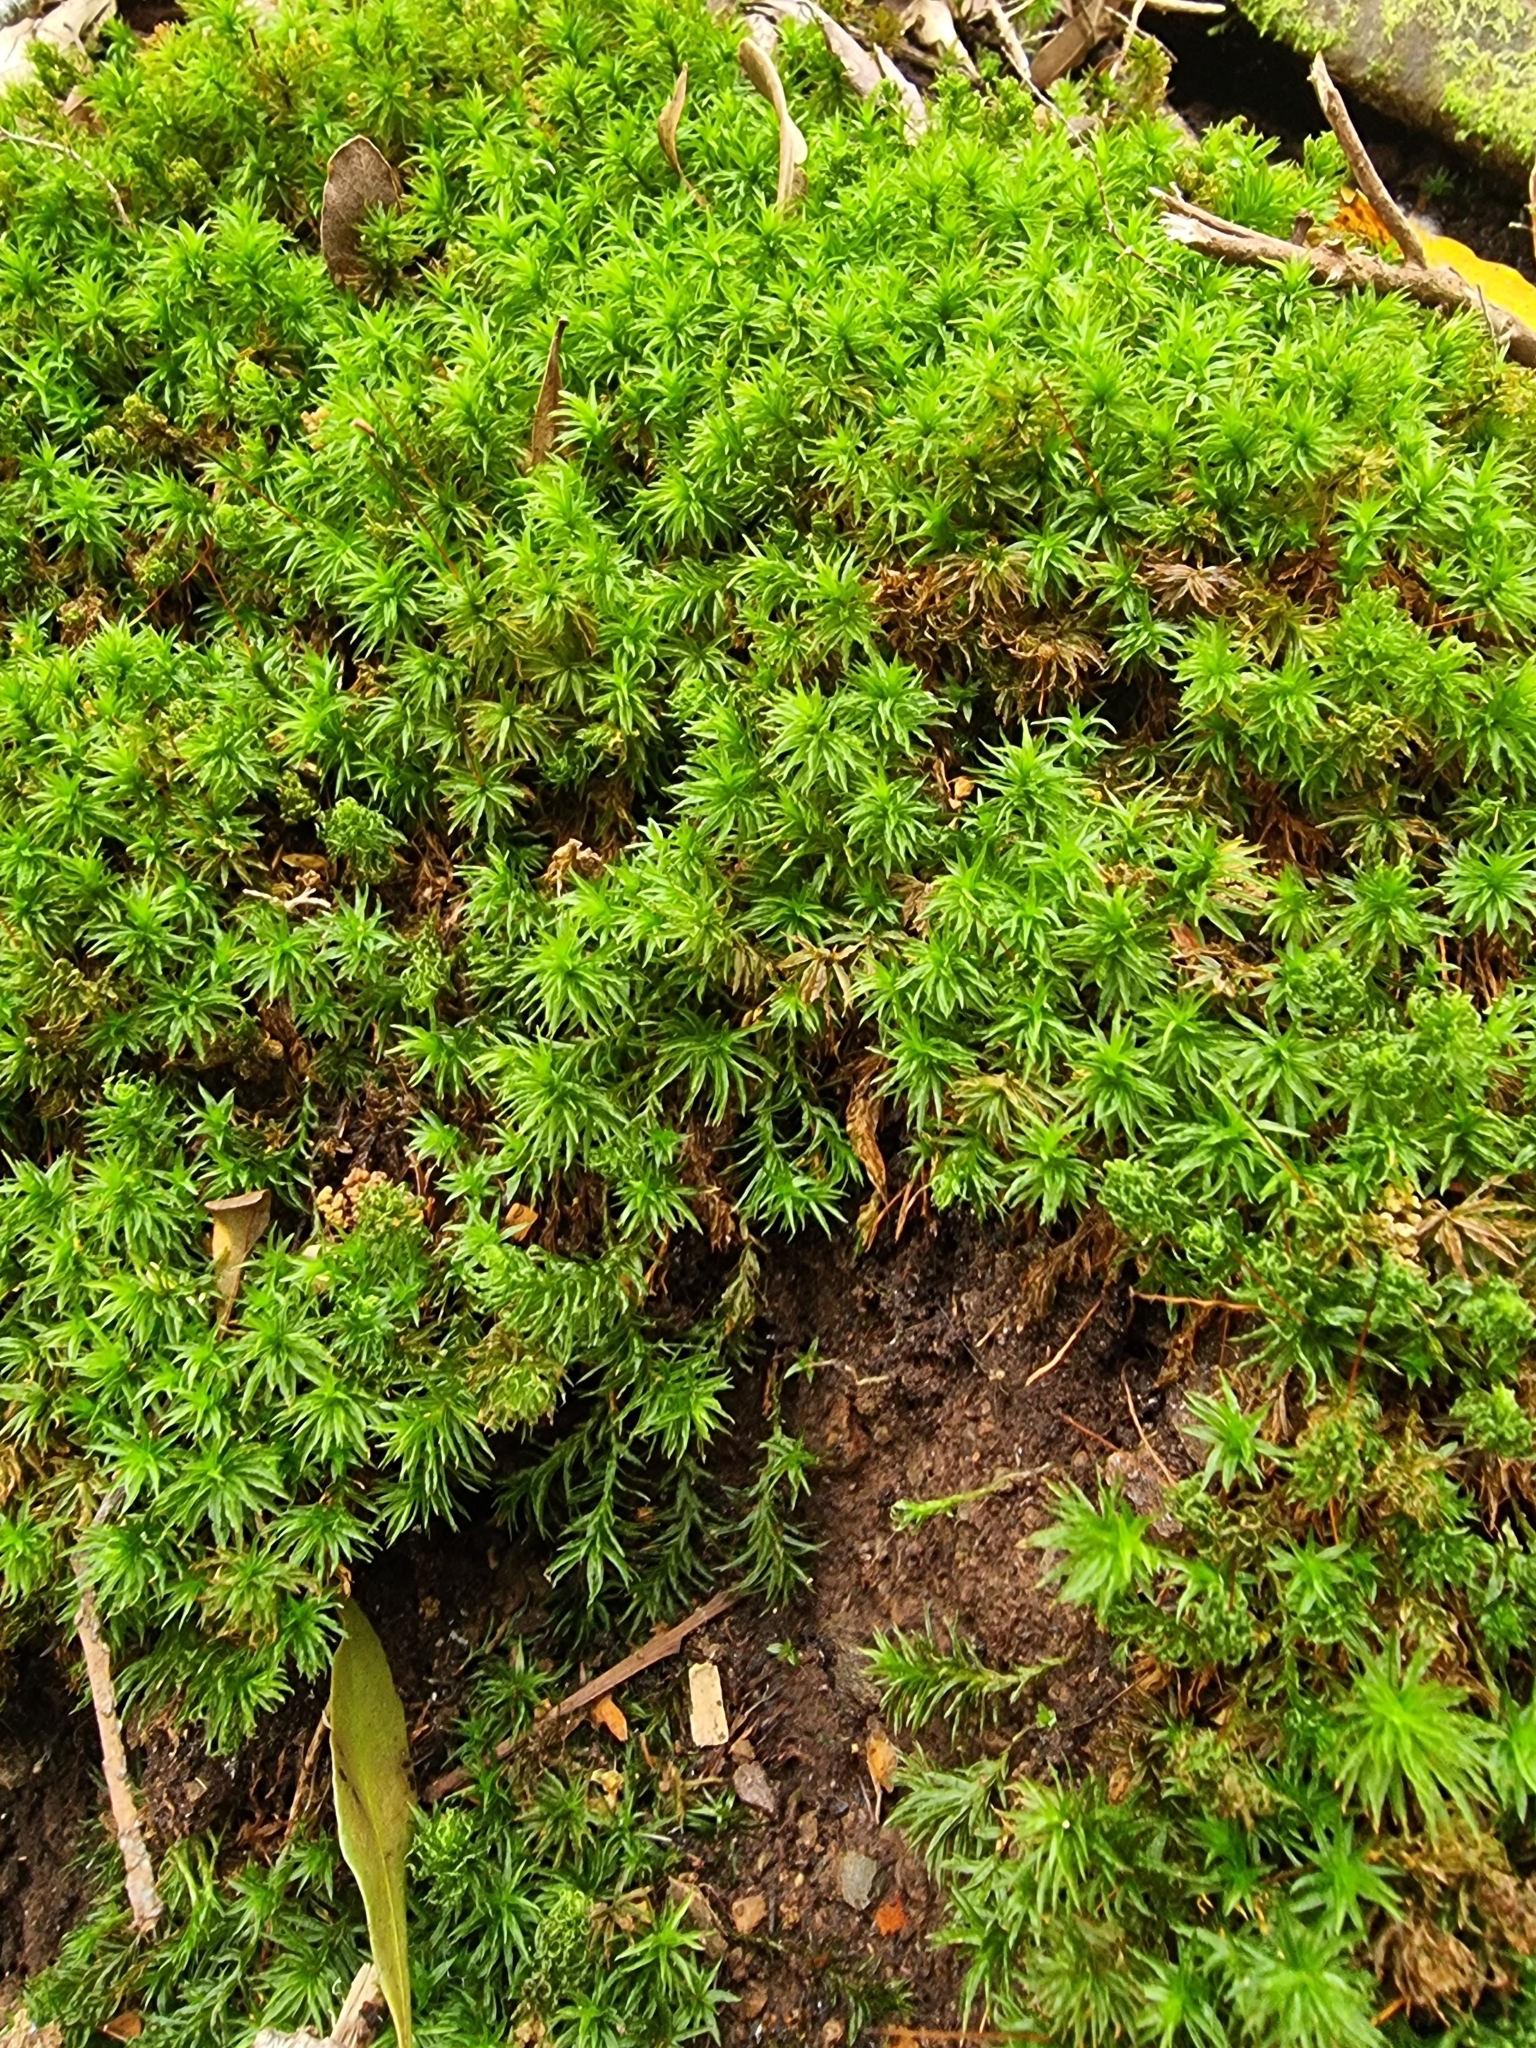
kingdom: Plantae
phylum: Bryophyta
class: Polytrichopsida
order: Polytrichales
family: Polytrichaceae
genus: Atrichum
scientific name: Atrichum undulatum
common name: Common smoothcap
